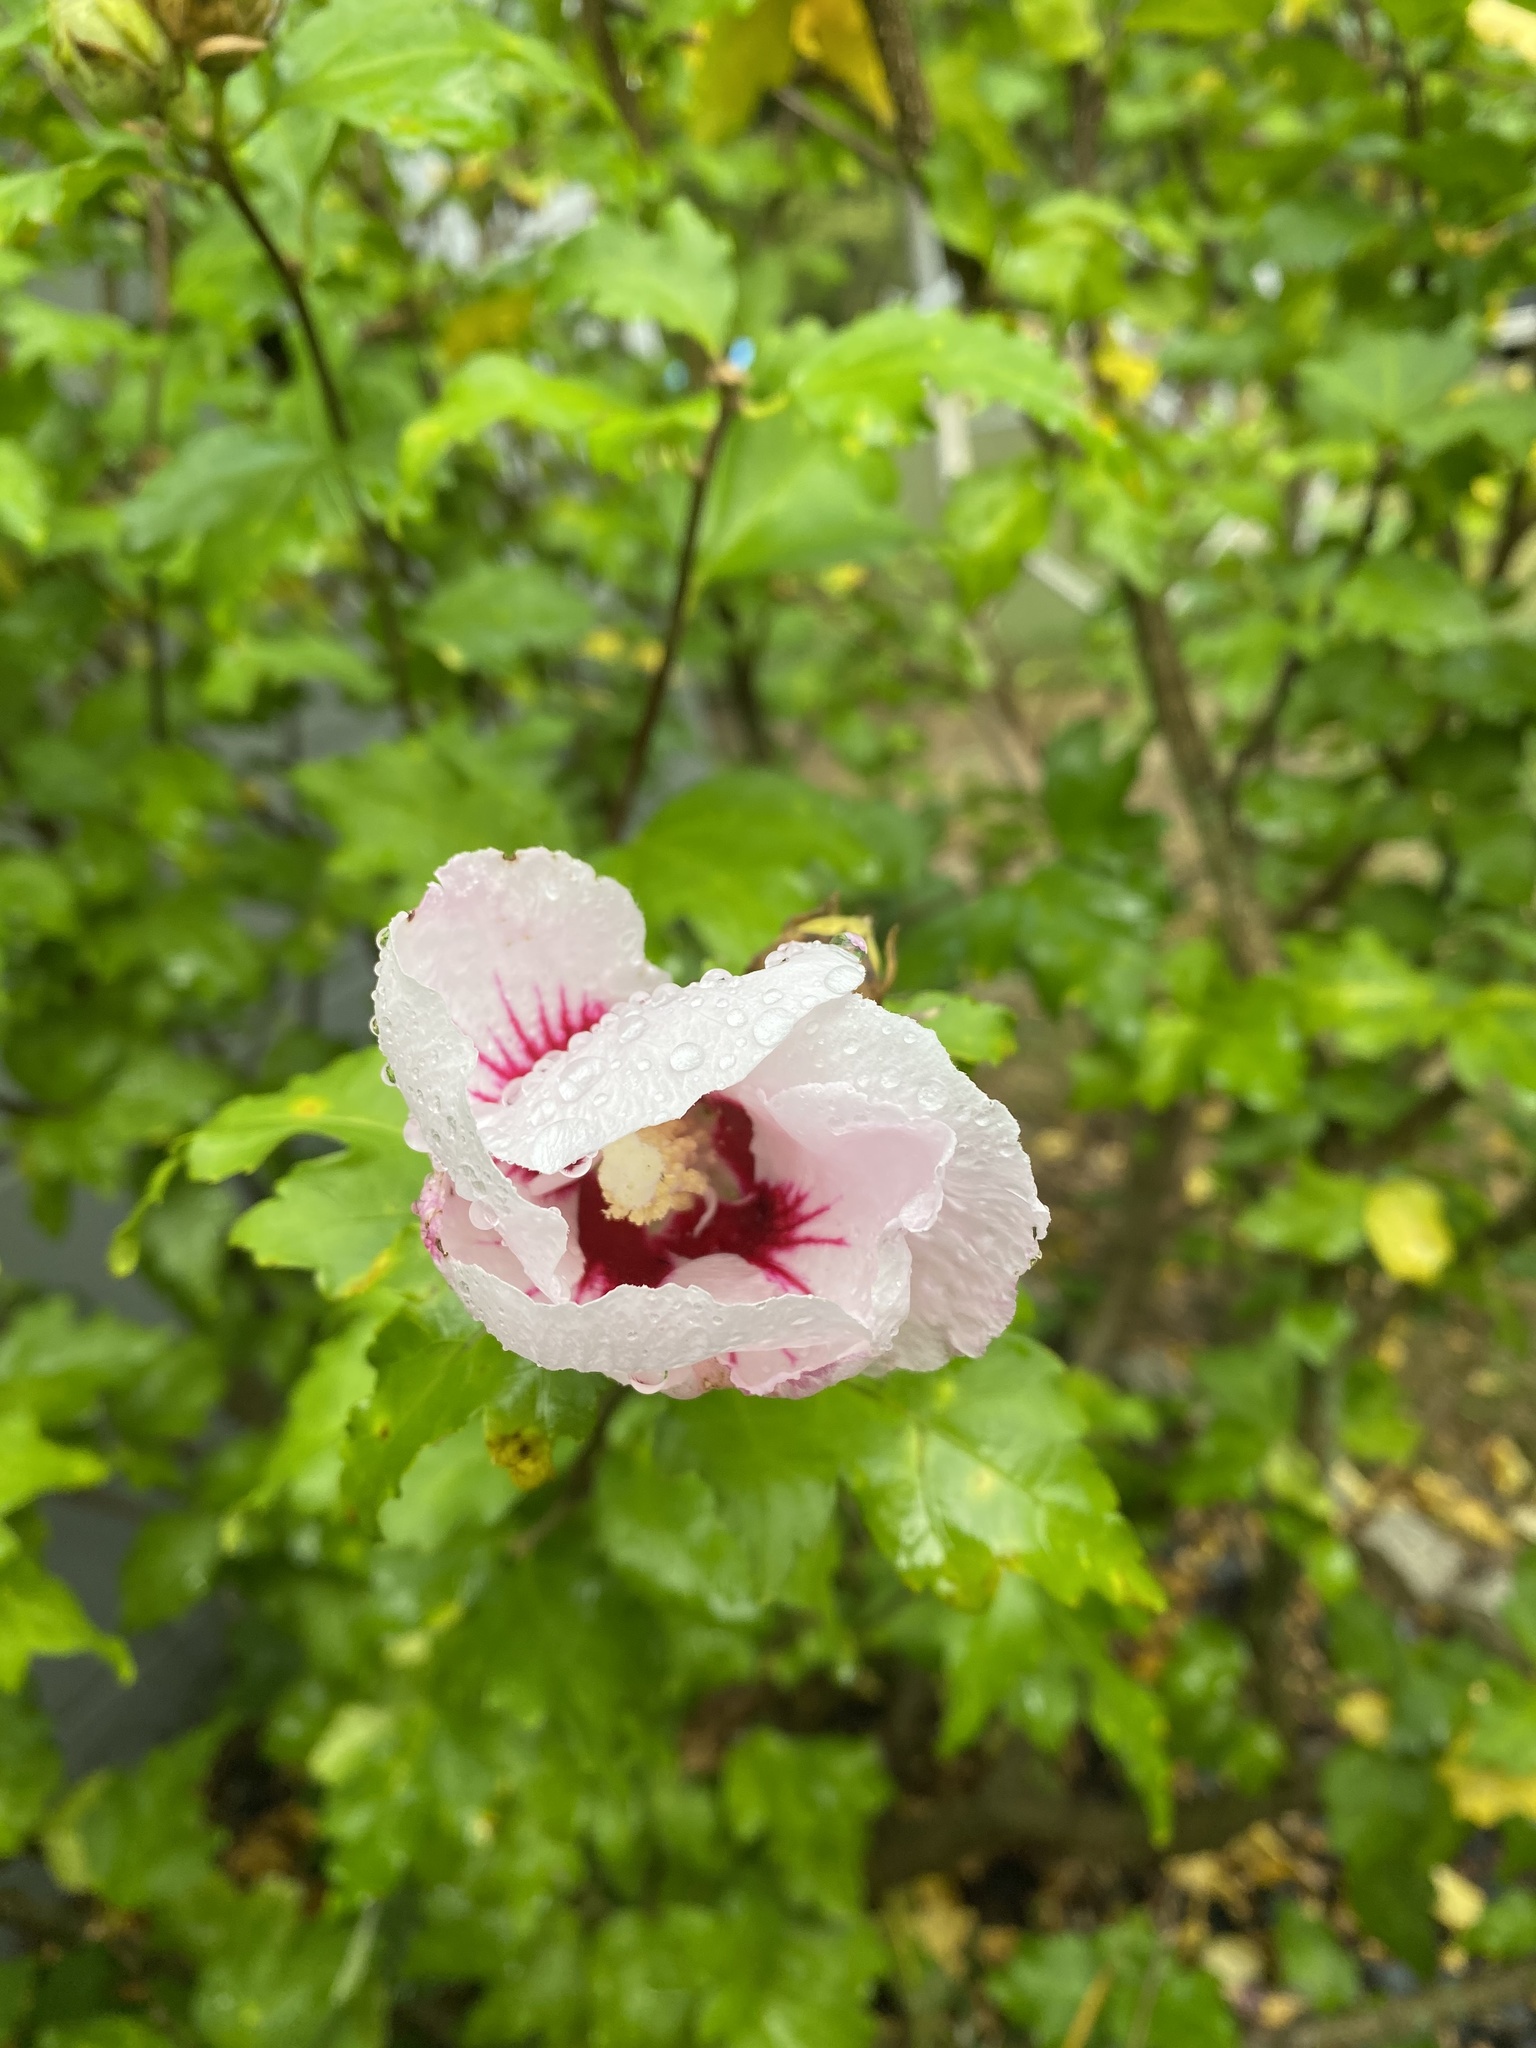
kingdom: Plantae
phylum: Tracheophyta
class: Magnoliopsida
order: Malvales
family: Malvaceae
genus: Hibiscus
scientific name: Hibiscus syriacus
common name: Syrian ketmia
